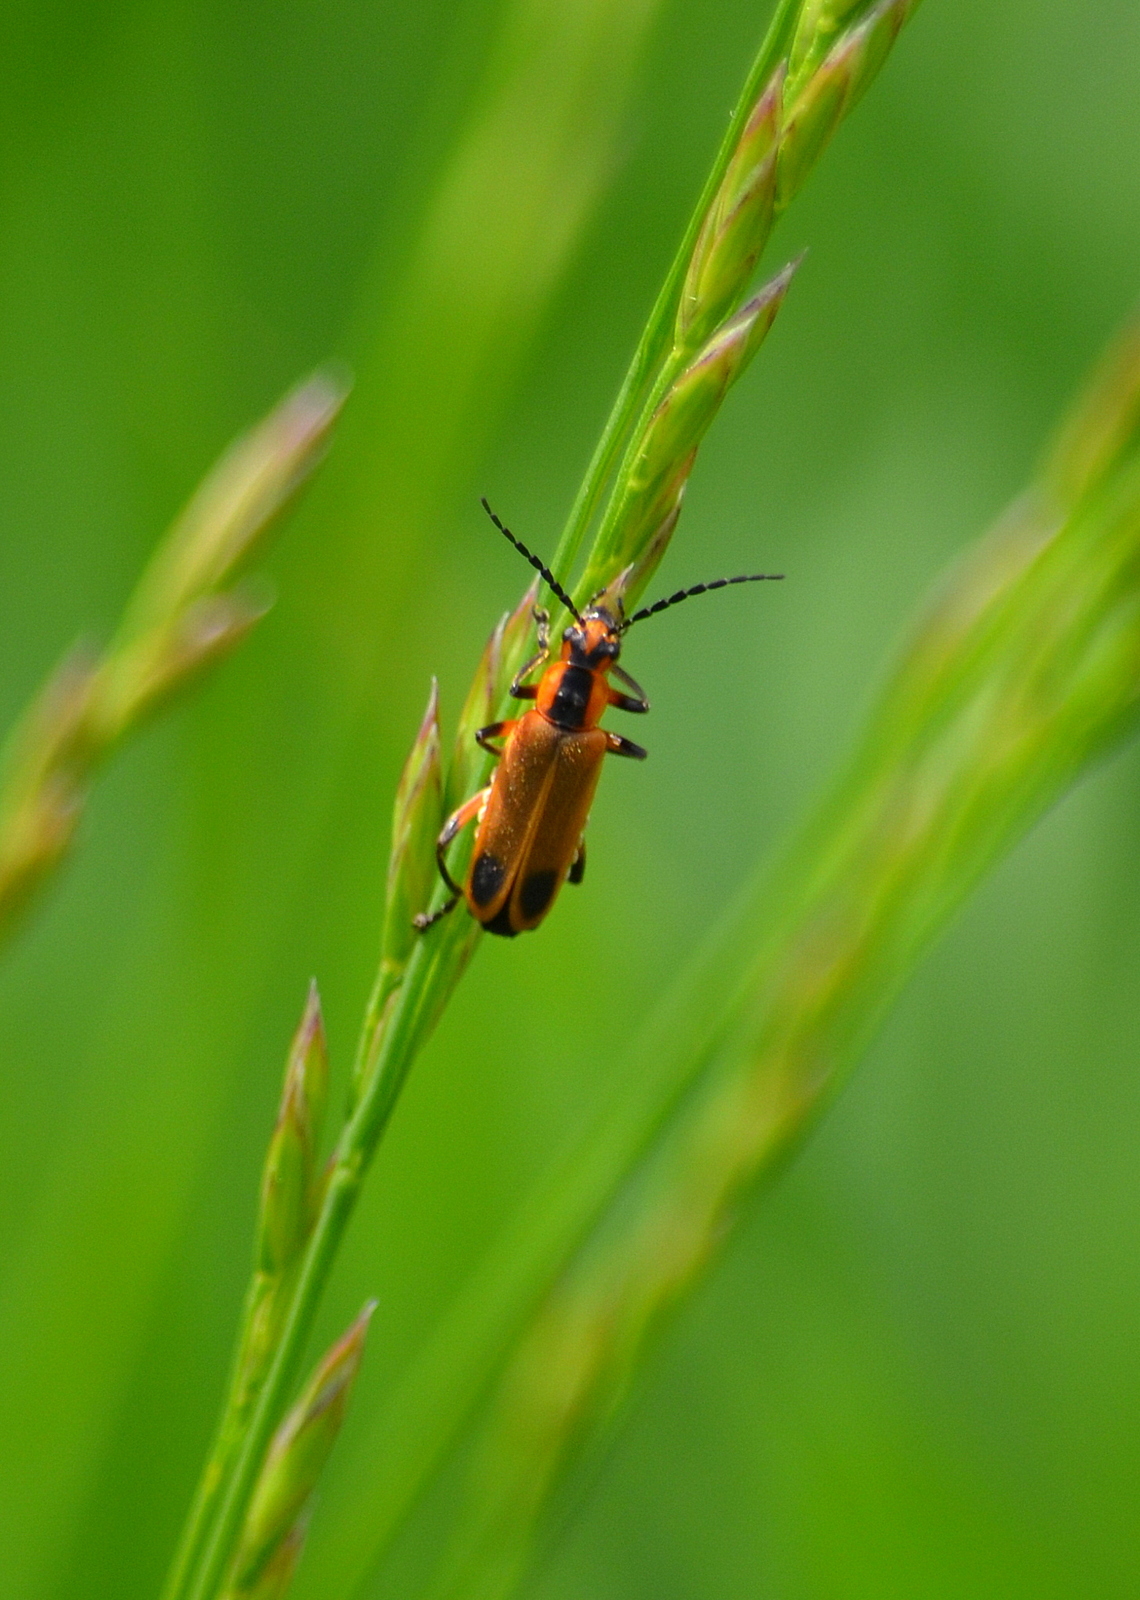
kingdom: Animalia
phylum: Arthropoda
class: Insecta
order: Coleoptera
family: Cantharidae
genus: Chauliognathus
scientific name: Chauliognathus marginatus
